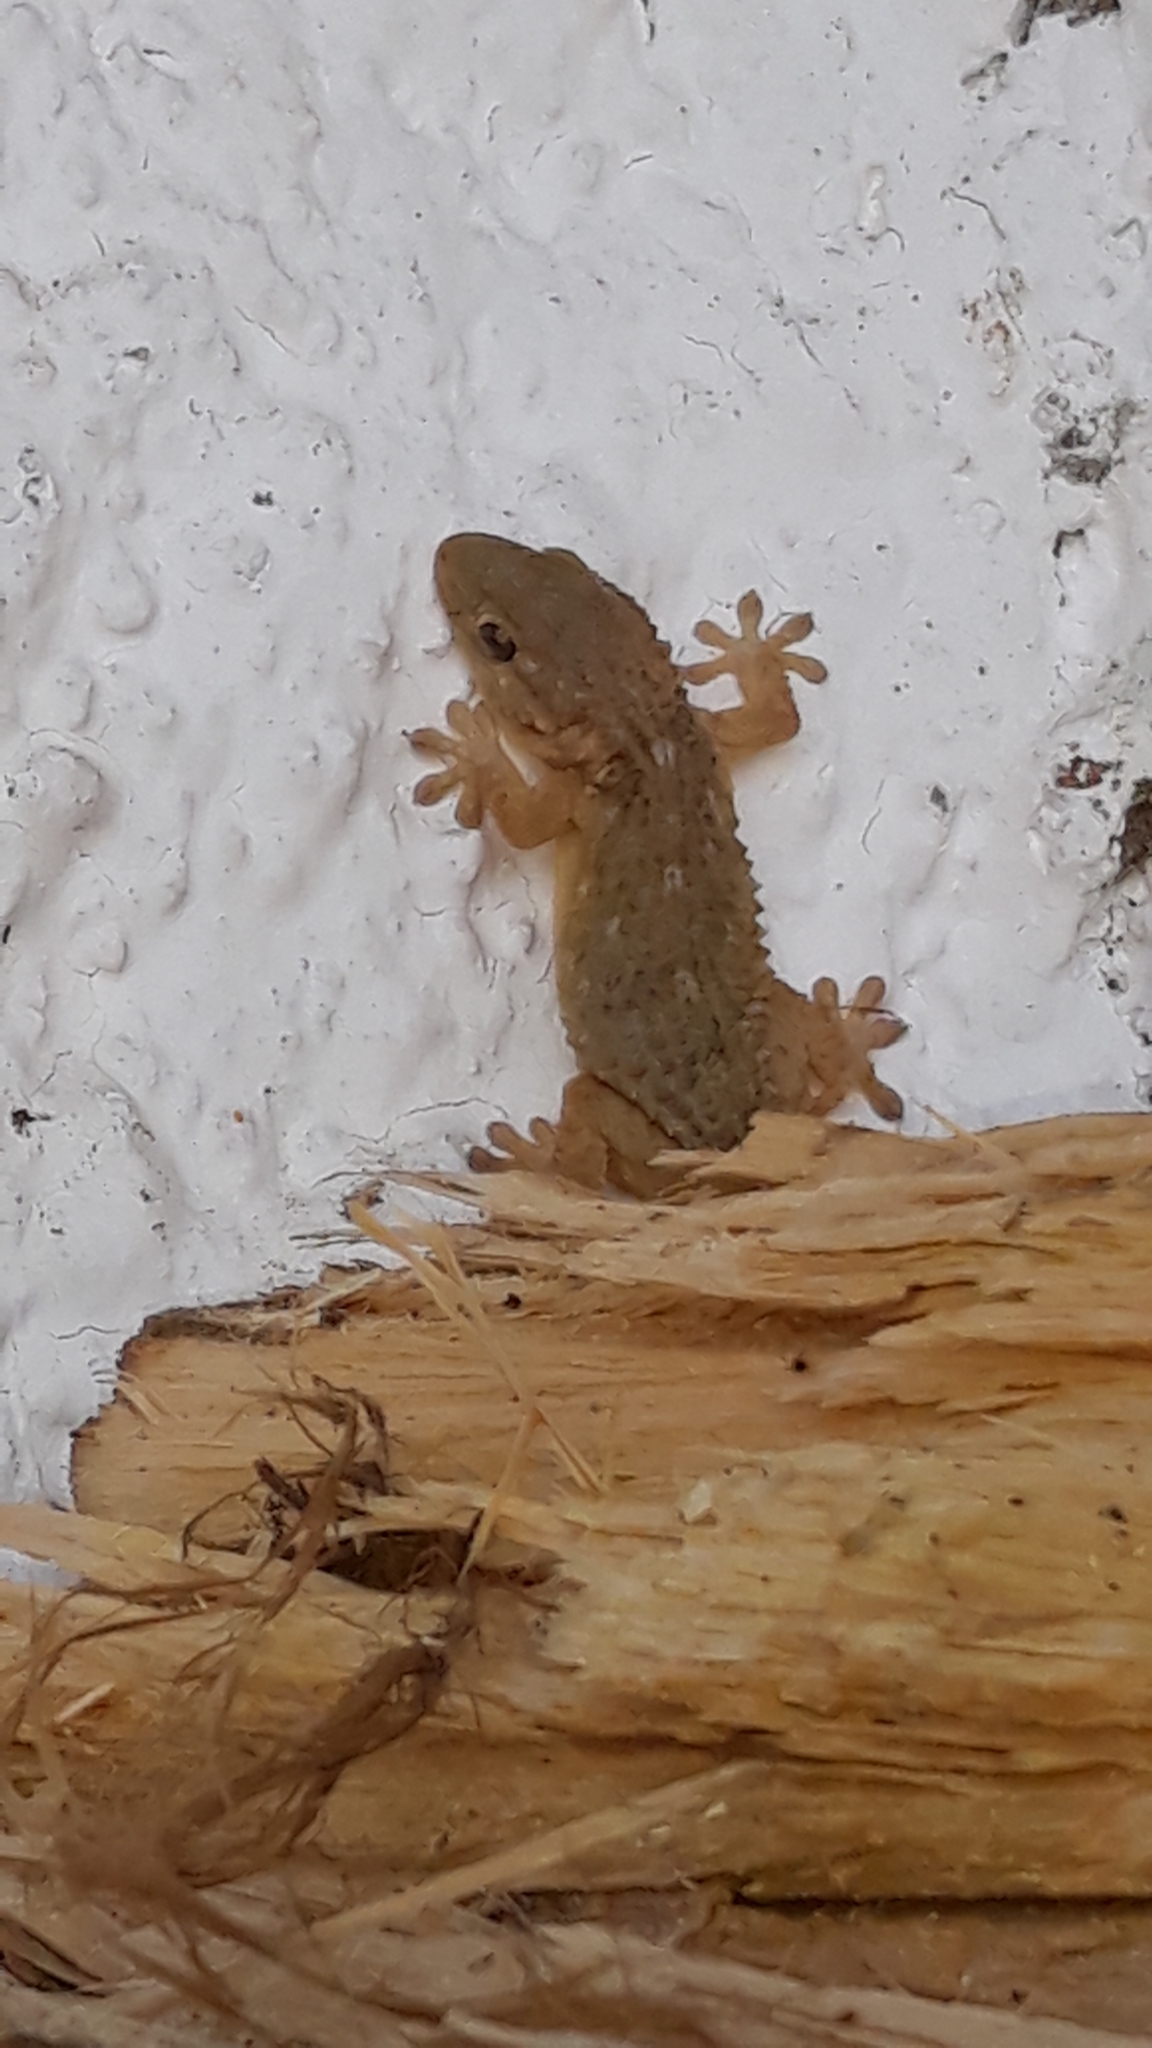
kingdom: Animalia
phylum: Chordata
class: Squamata
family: Phyllodactylidae
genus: Tarentola
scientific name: Tarentola mauritanica
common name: Moorish gecko
